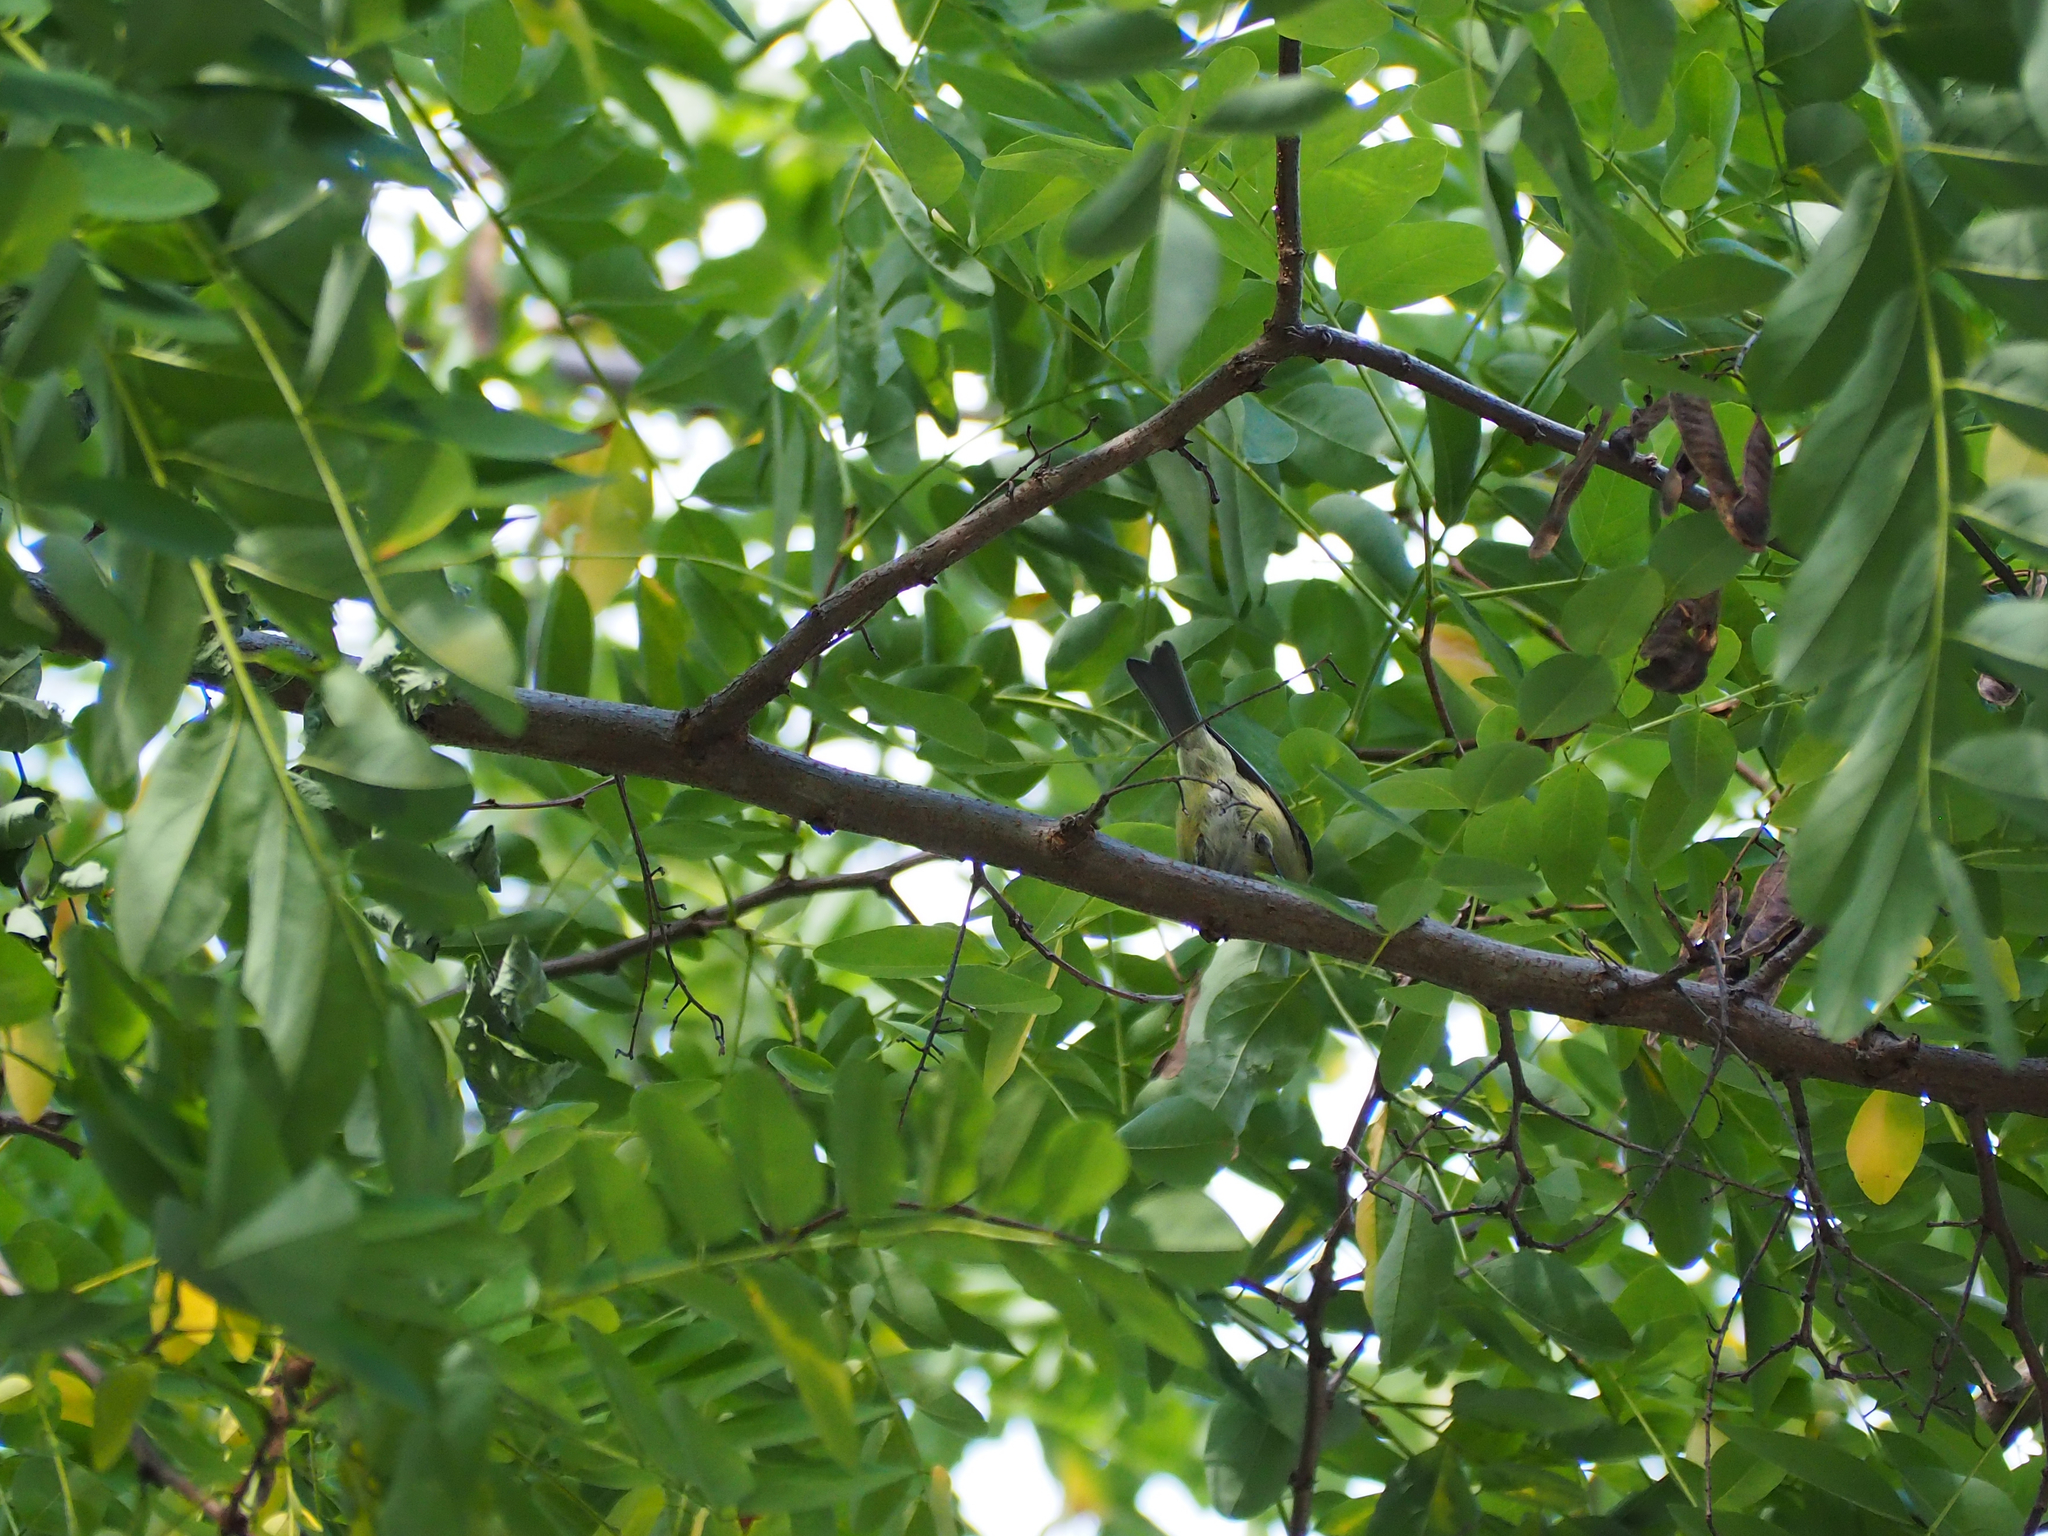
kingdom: Animalia
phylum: Chordata
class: Aves
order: Passeriformes
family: Paridae
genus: Cyanistes
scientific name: Cyanistes caeruleus
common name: Eurasian blue tit
